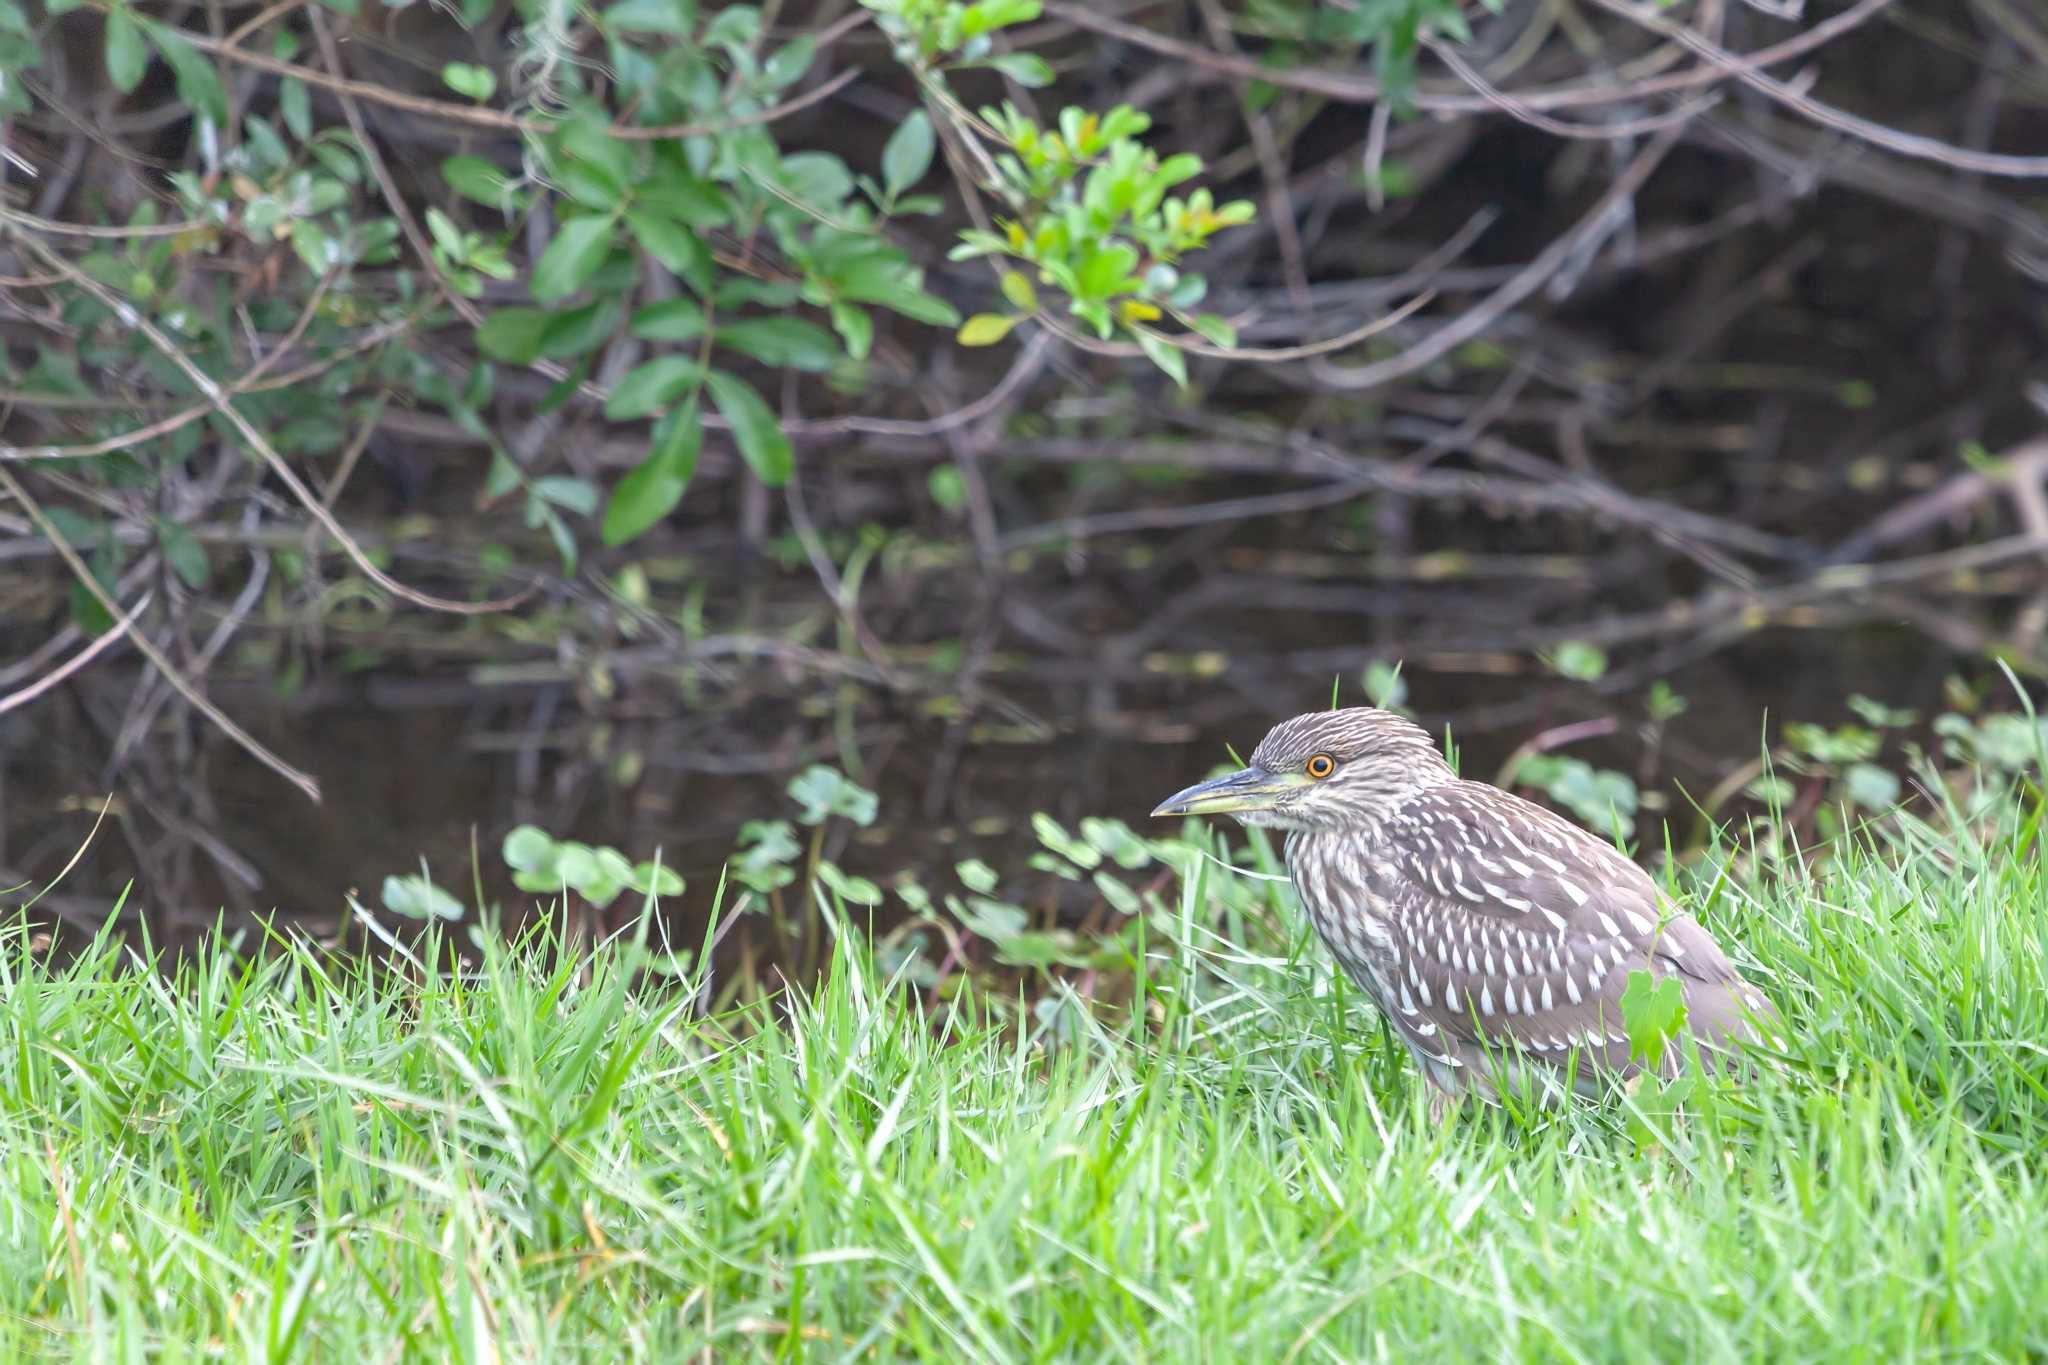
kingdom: Animalia
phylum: Chordata
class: Aves
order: Pelecaniformes
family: Ardeidae
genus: Nycticorax
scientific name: Nycticorax nycticorax
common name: Black-crowned night heron
